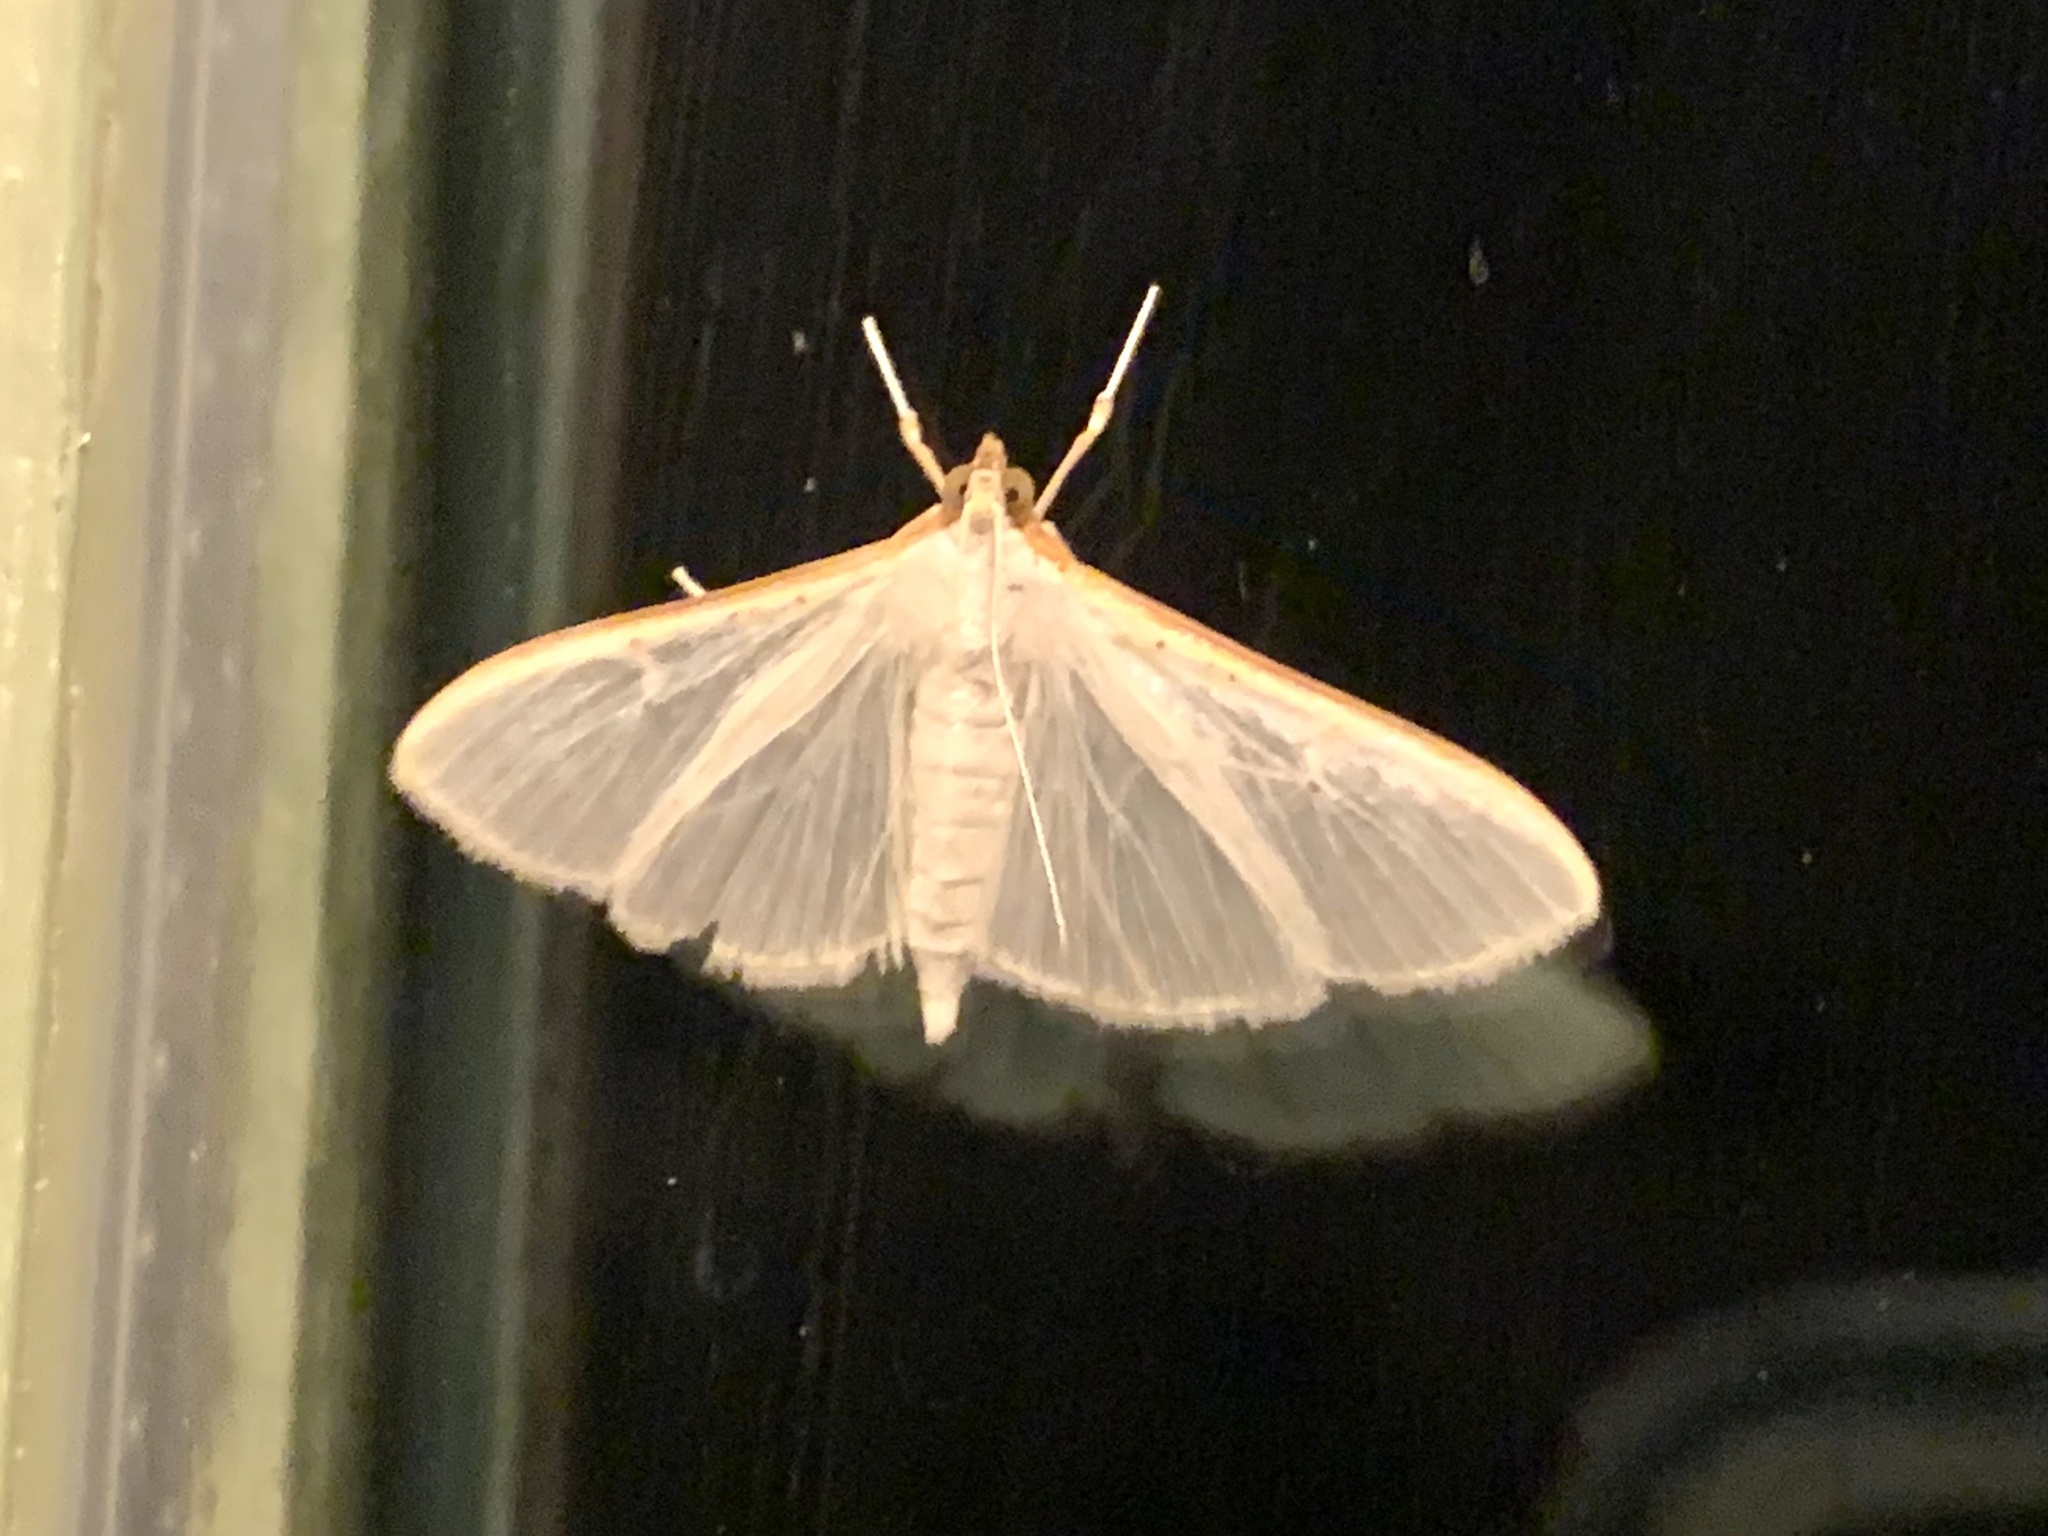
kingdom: Animalia
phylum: Arthropoda
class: Insecta
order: Lepidoptera
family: Crambidae
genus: Palpita
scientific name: Palpita vitrealis
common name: Olive-tree pearl
